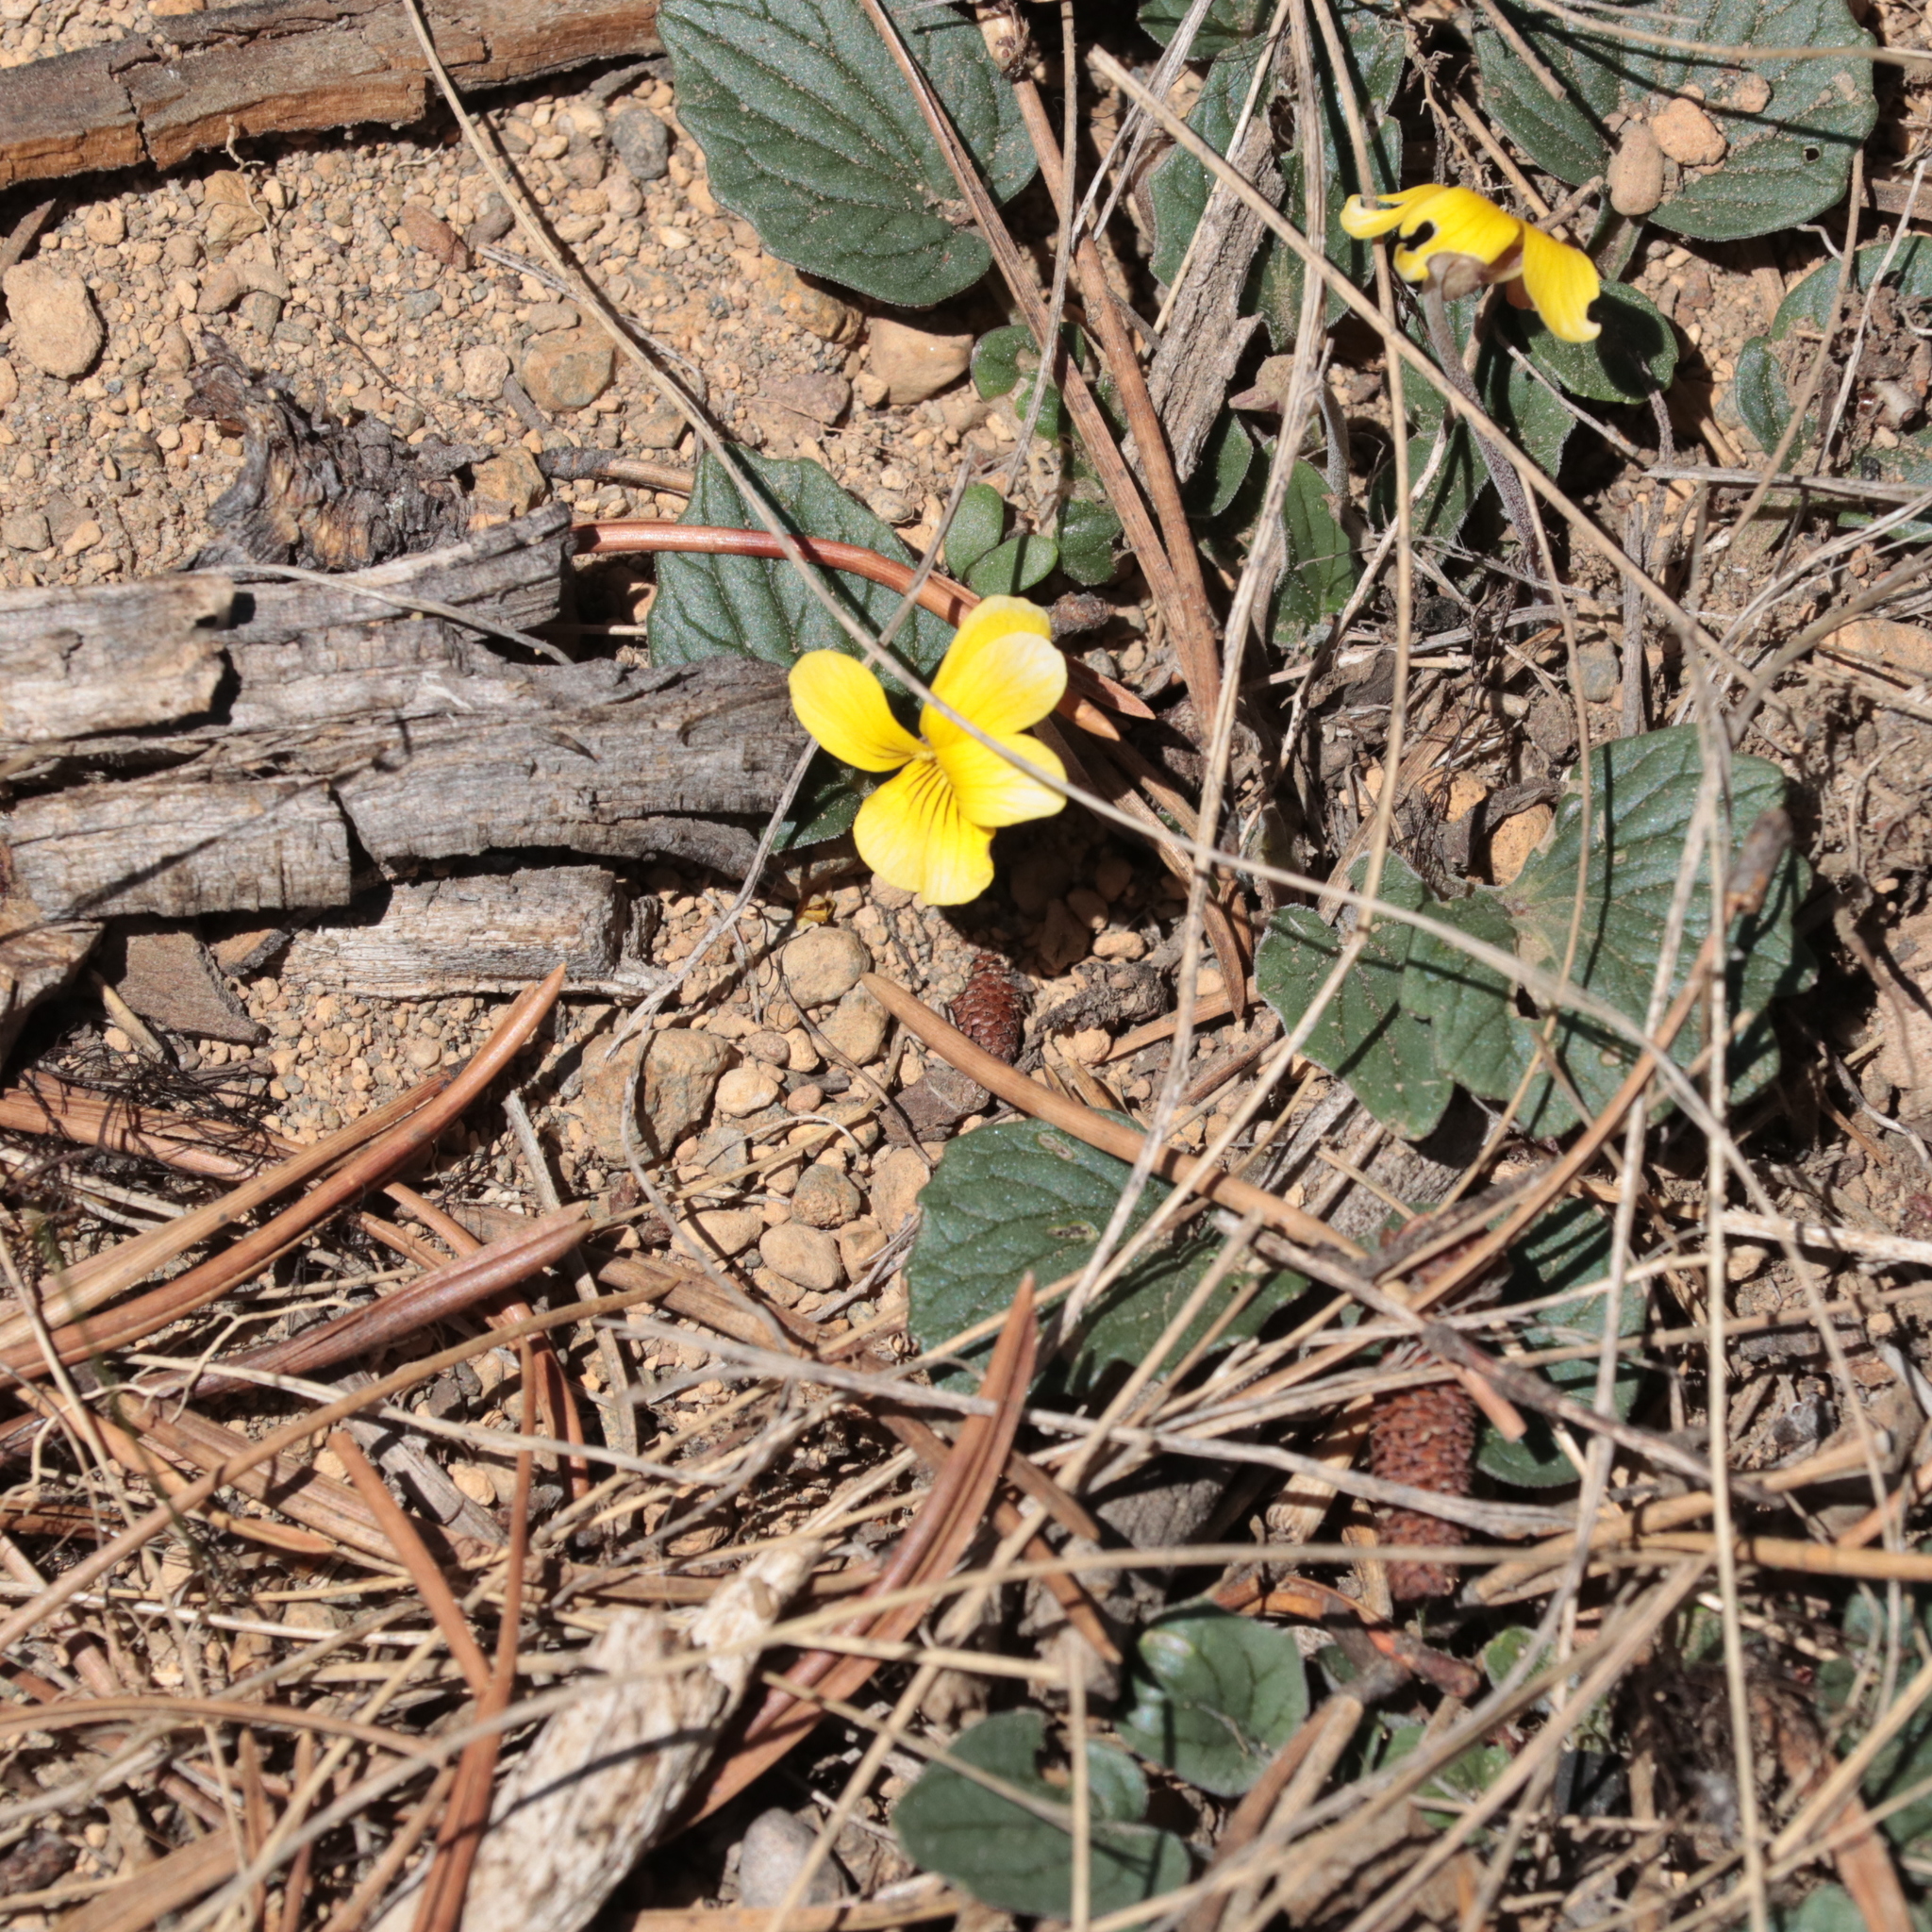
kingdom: Plantae
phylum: Tracheophyta
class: Magnoliopsida
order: Malpighiales
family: Violaceae
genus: Viola
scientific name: Viola purpurea
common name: Pine violet
